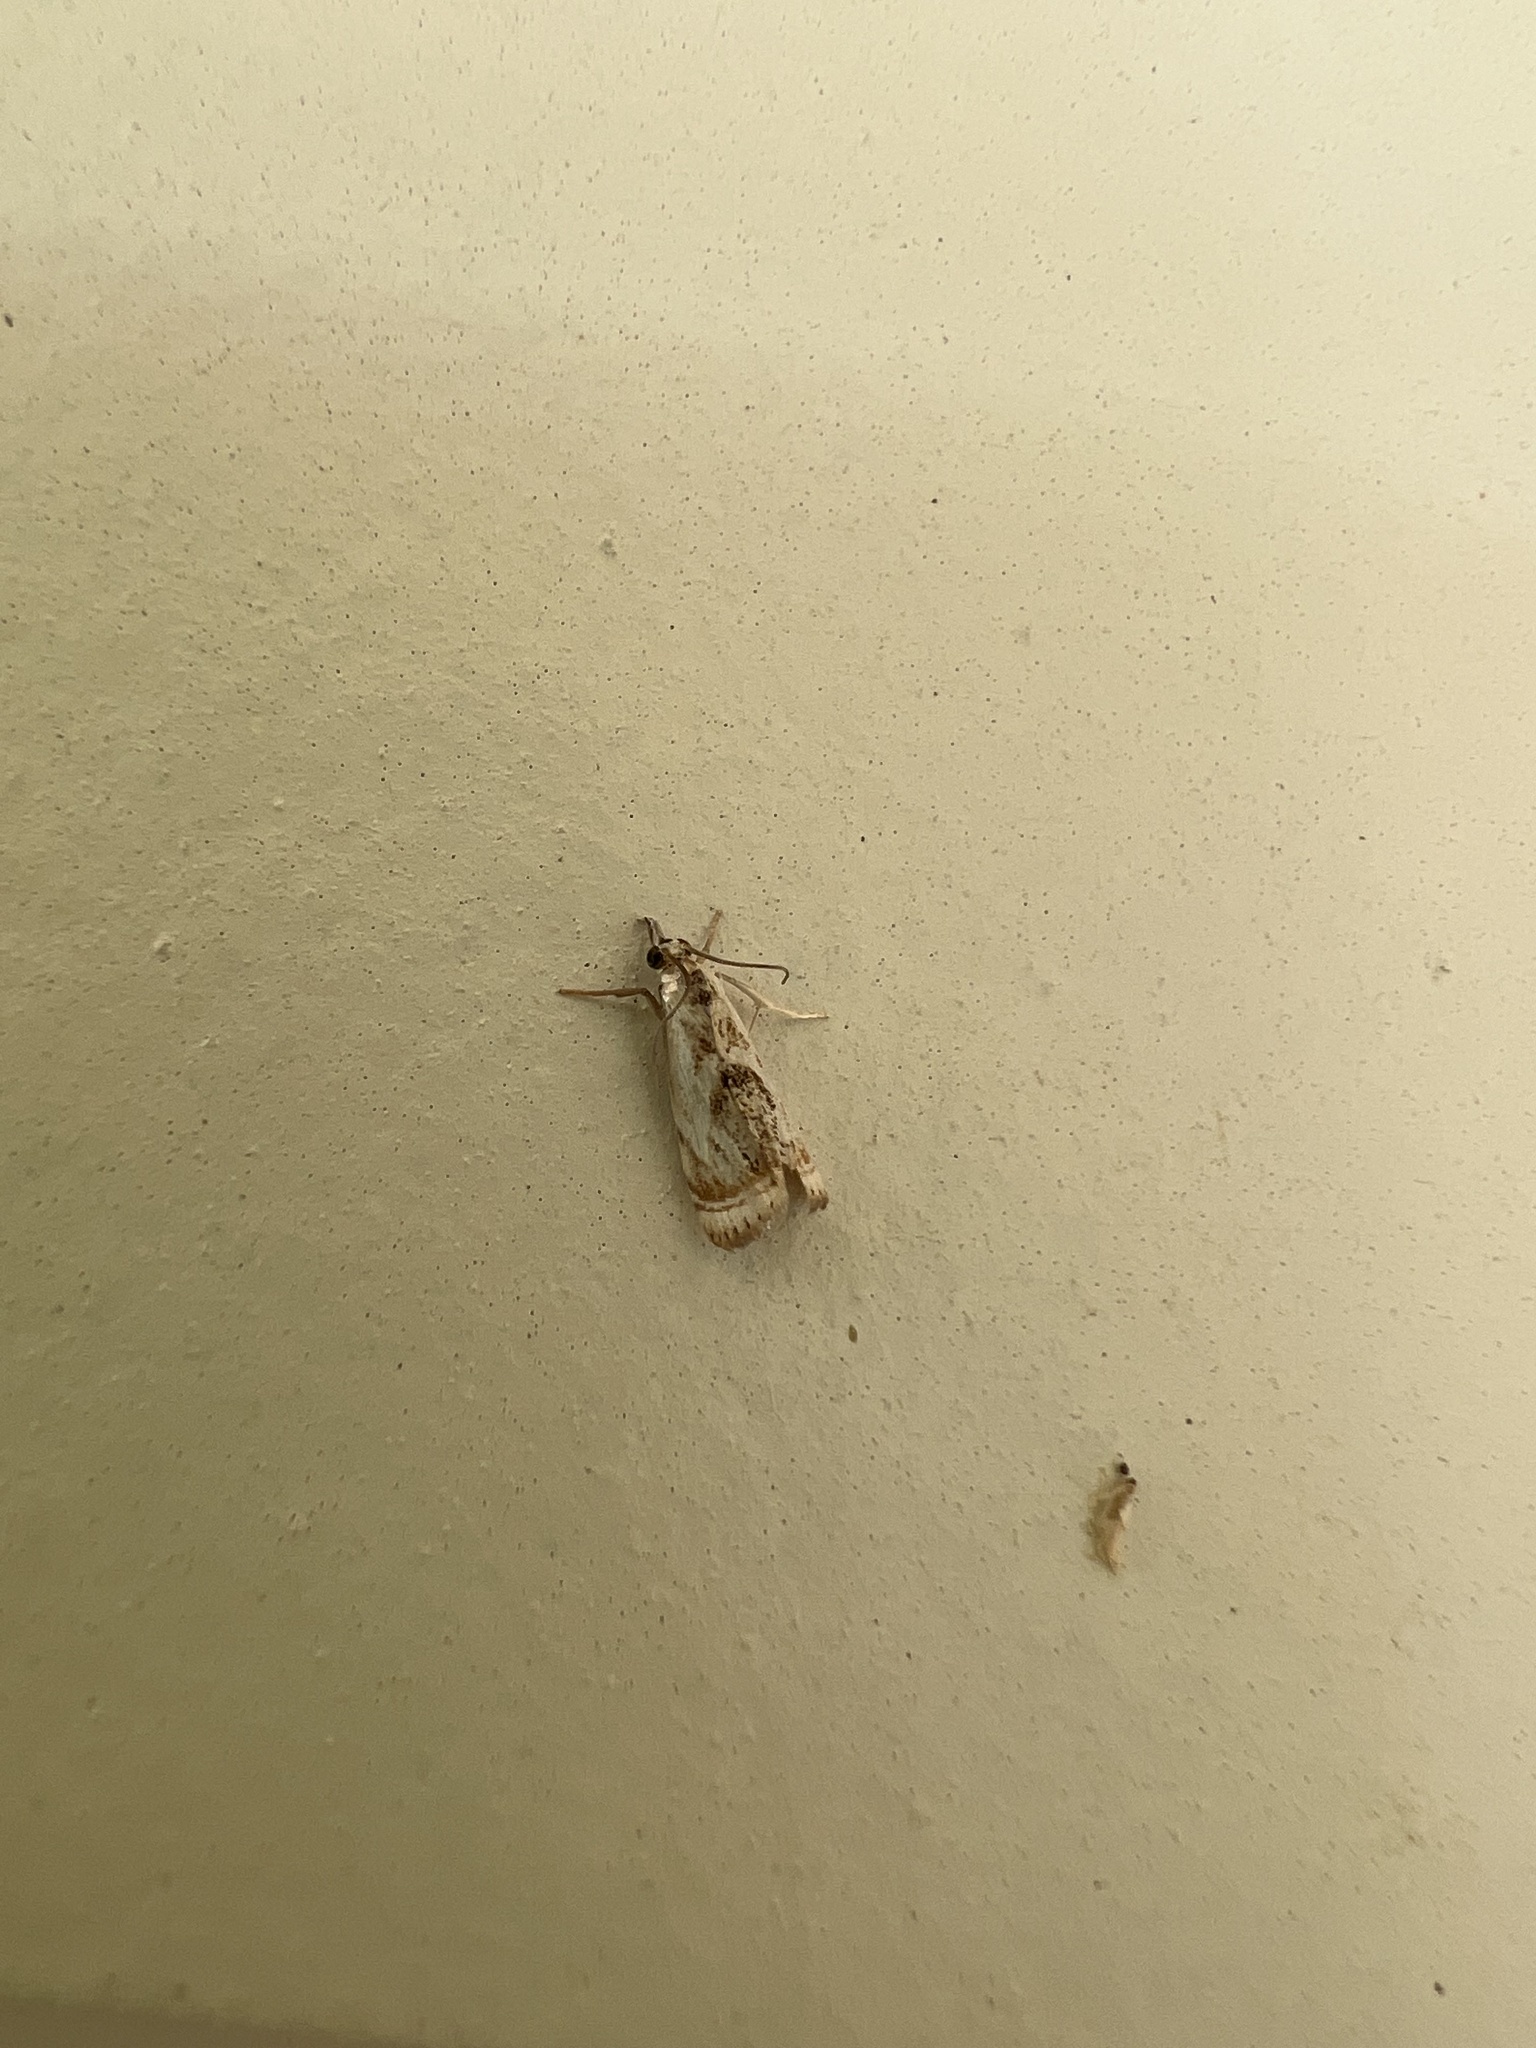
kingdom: Animalia
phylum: Arthropoda
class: Insecta
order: Lepidoptera
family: Crambidae
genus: Microcrambus
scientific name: Microcrambus elegans
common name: Elegant grass-veneer
